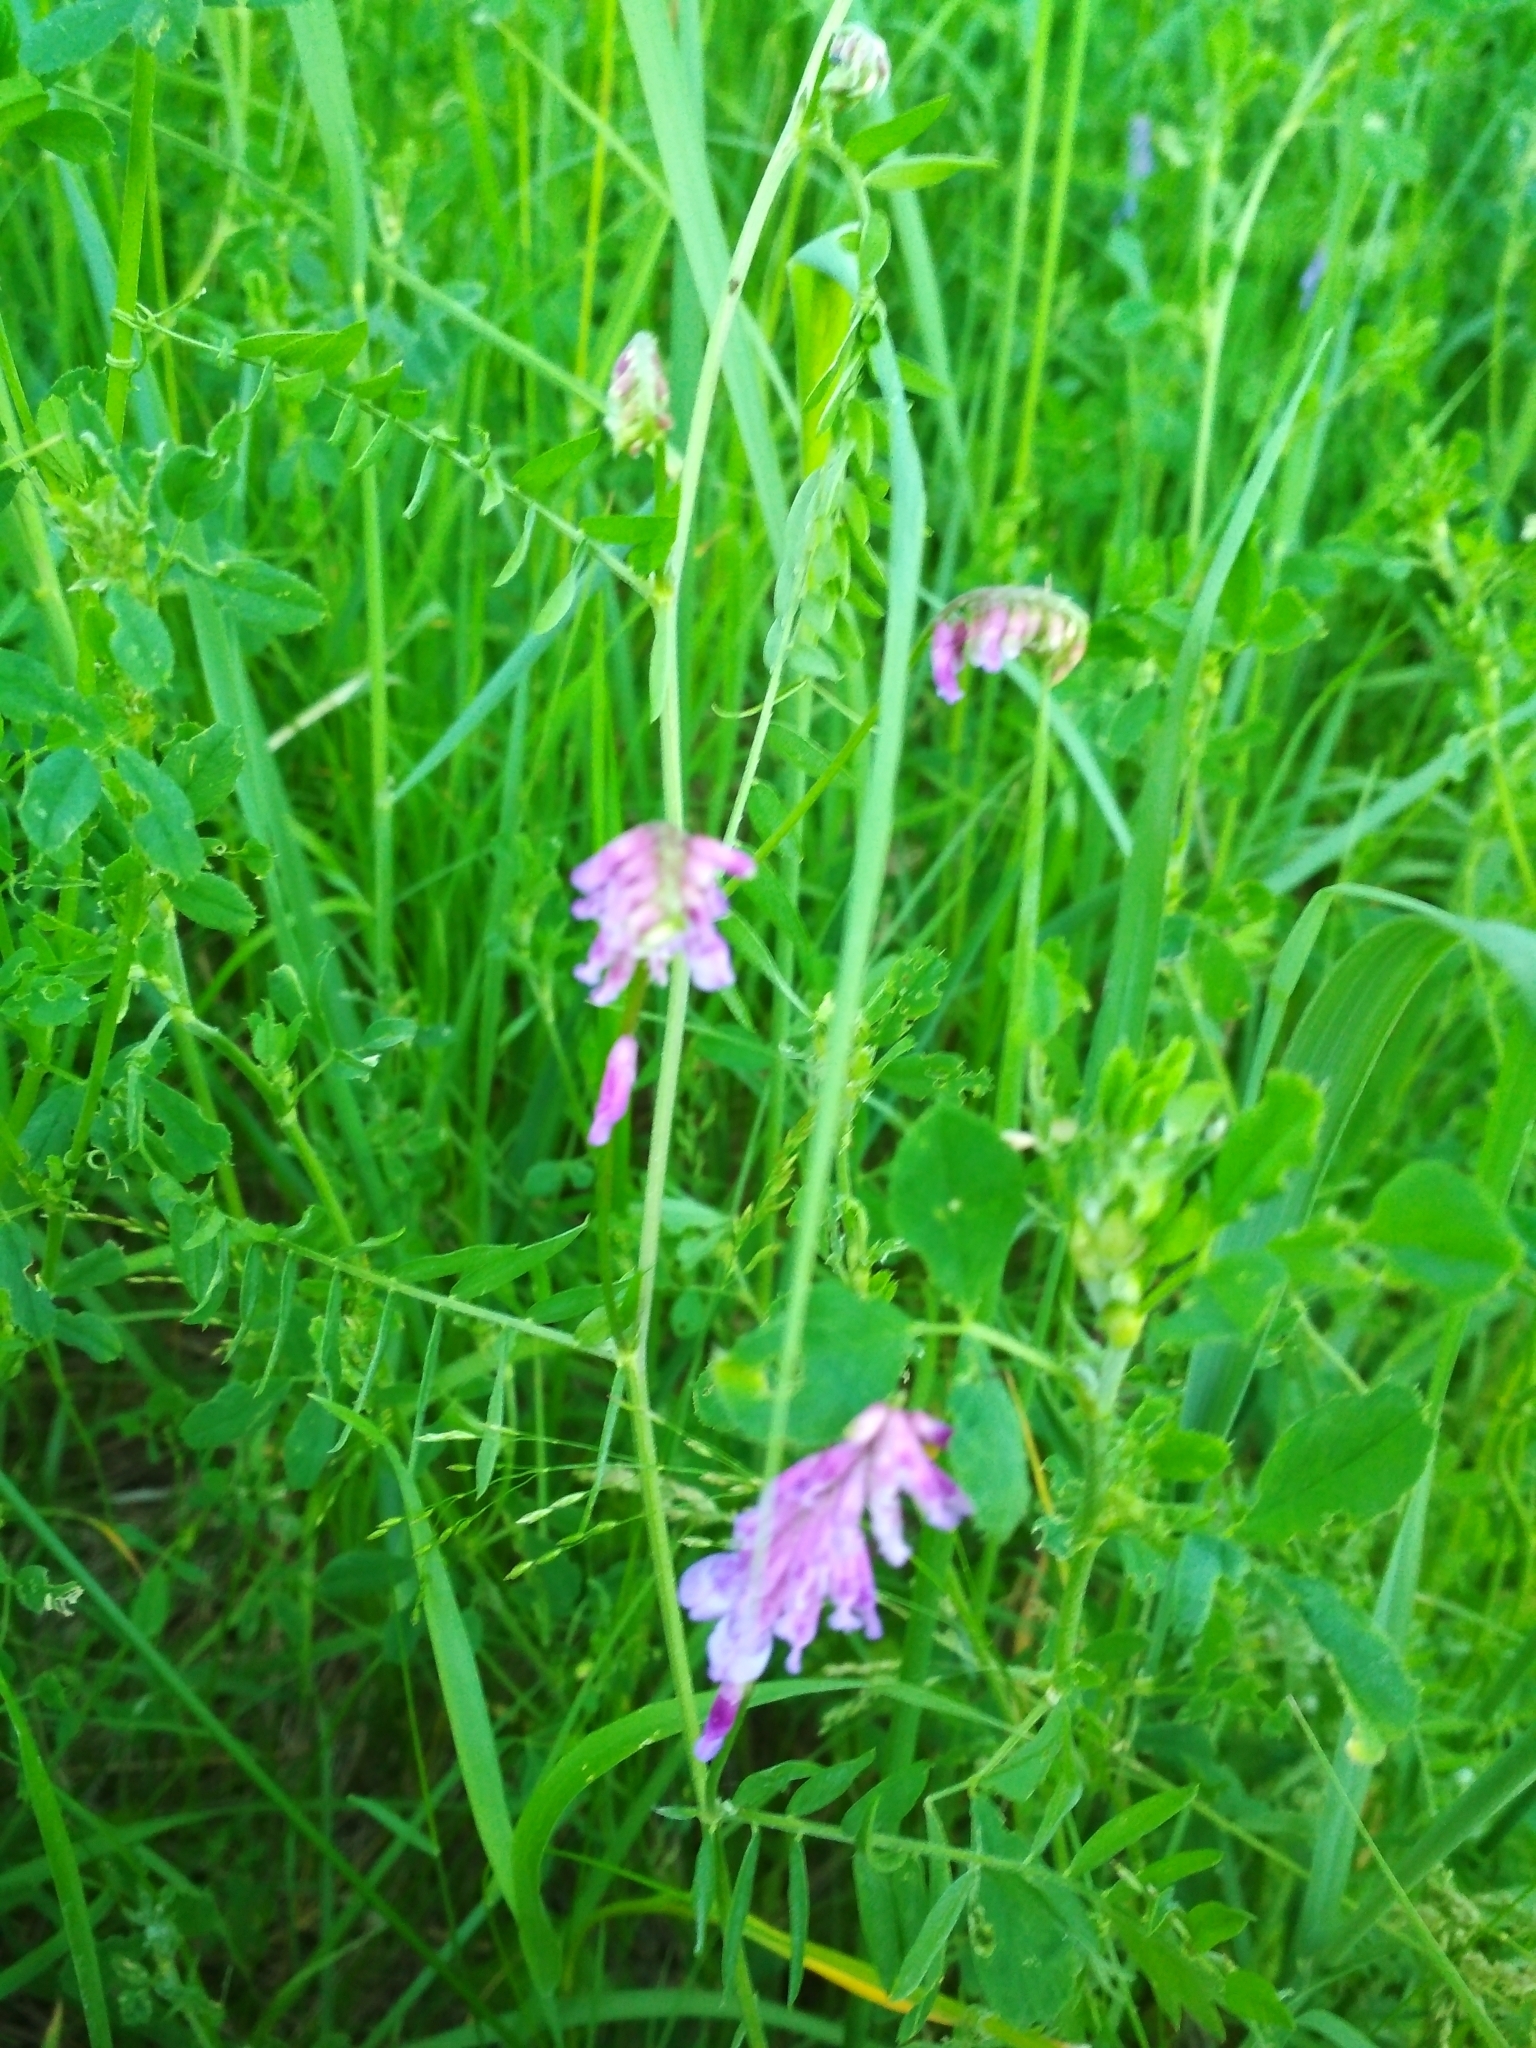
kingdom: Plantae
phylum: Tracheophyta
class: Magnoliopsida
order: Fabales
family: Fabaceae
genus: Vicia
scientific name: Vicia cracca
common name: Bird vetch
